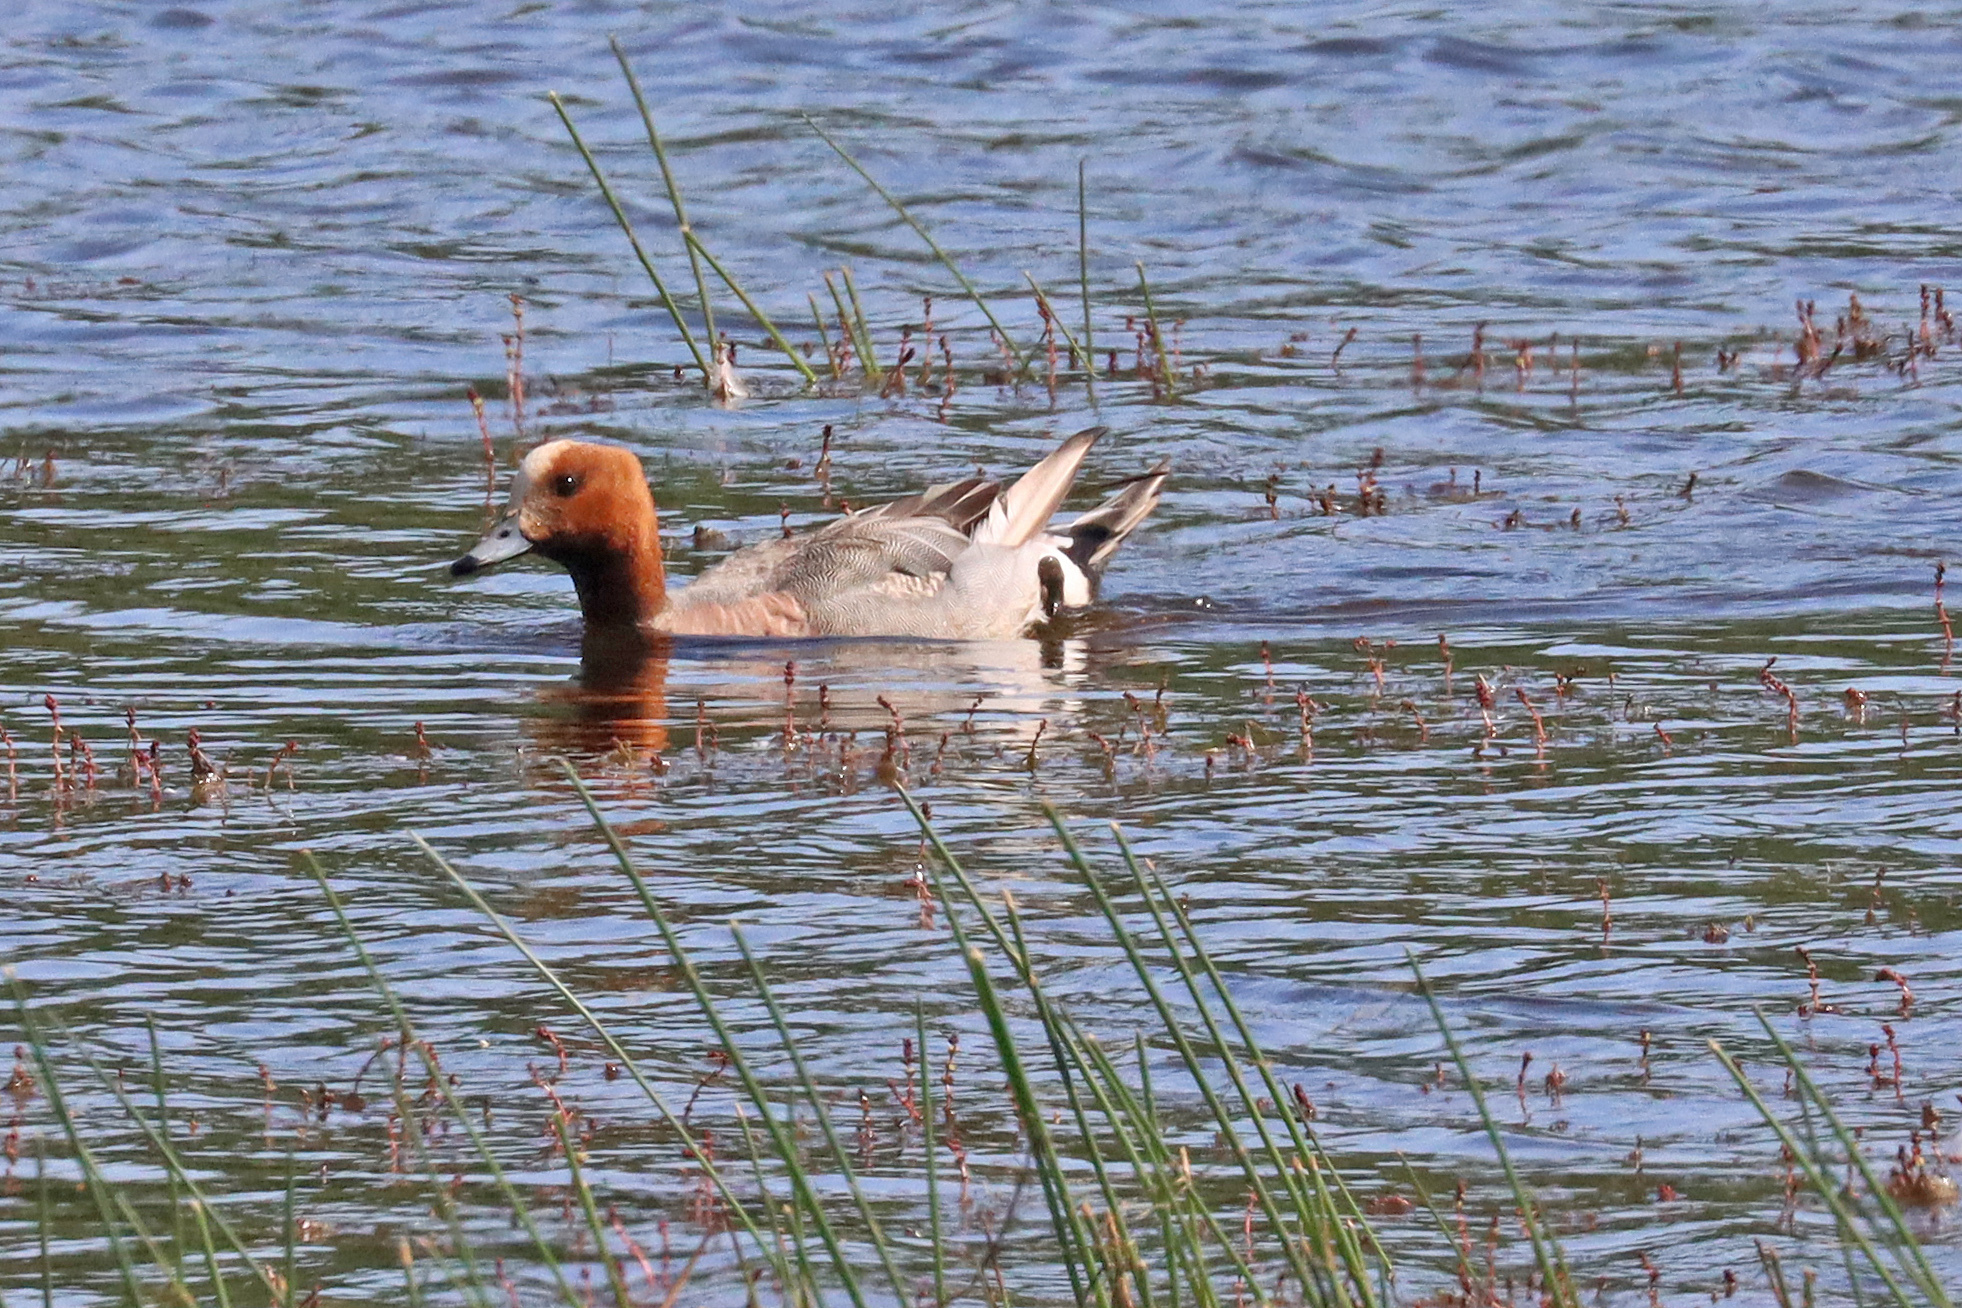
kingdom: Animalia
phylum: Chordata
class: Aves
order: Anseriformes
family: Anatidae
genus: Mareca
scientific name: Mareca penelope
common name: Eurasian wigeon
